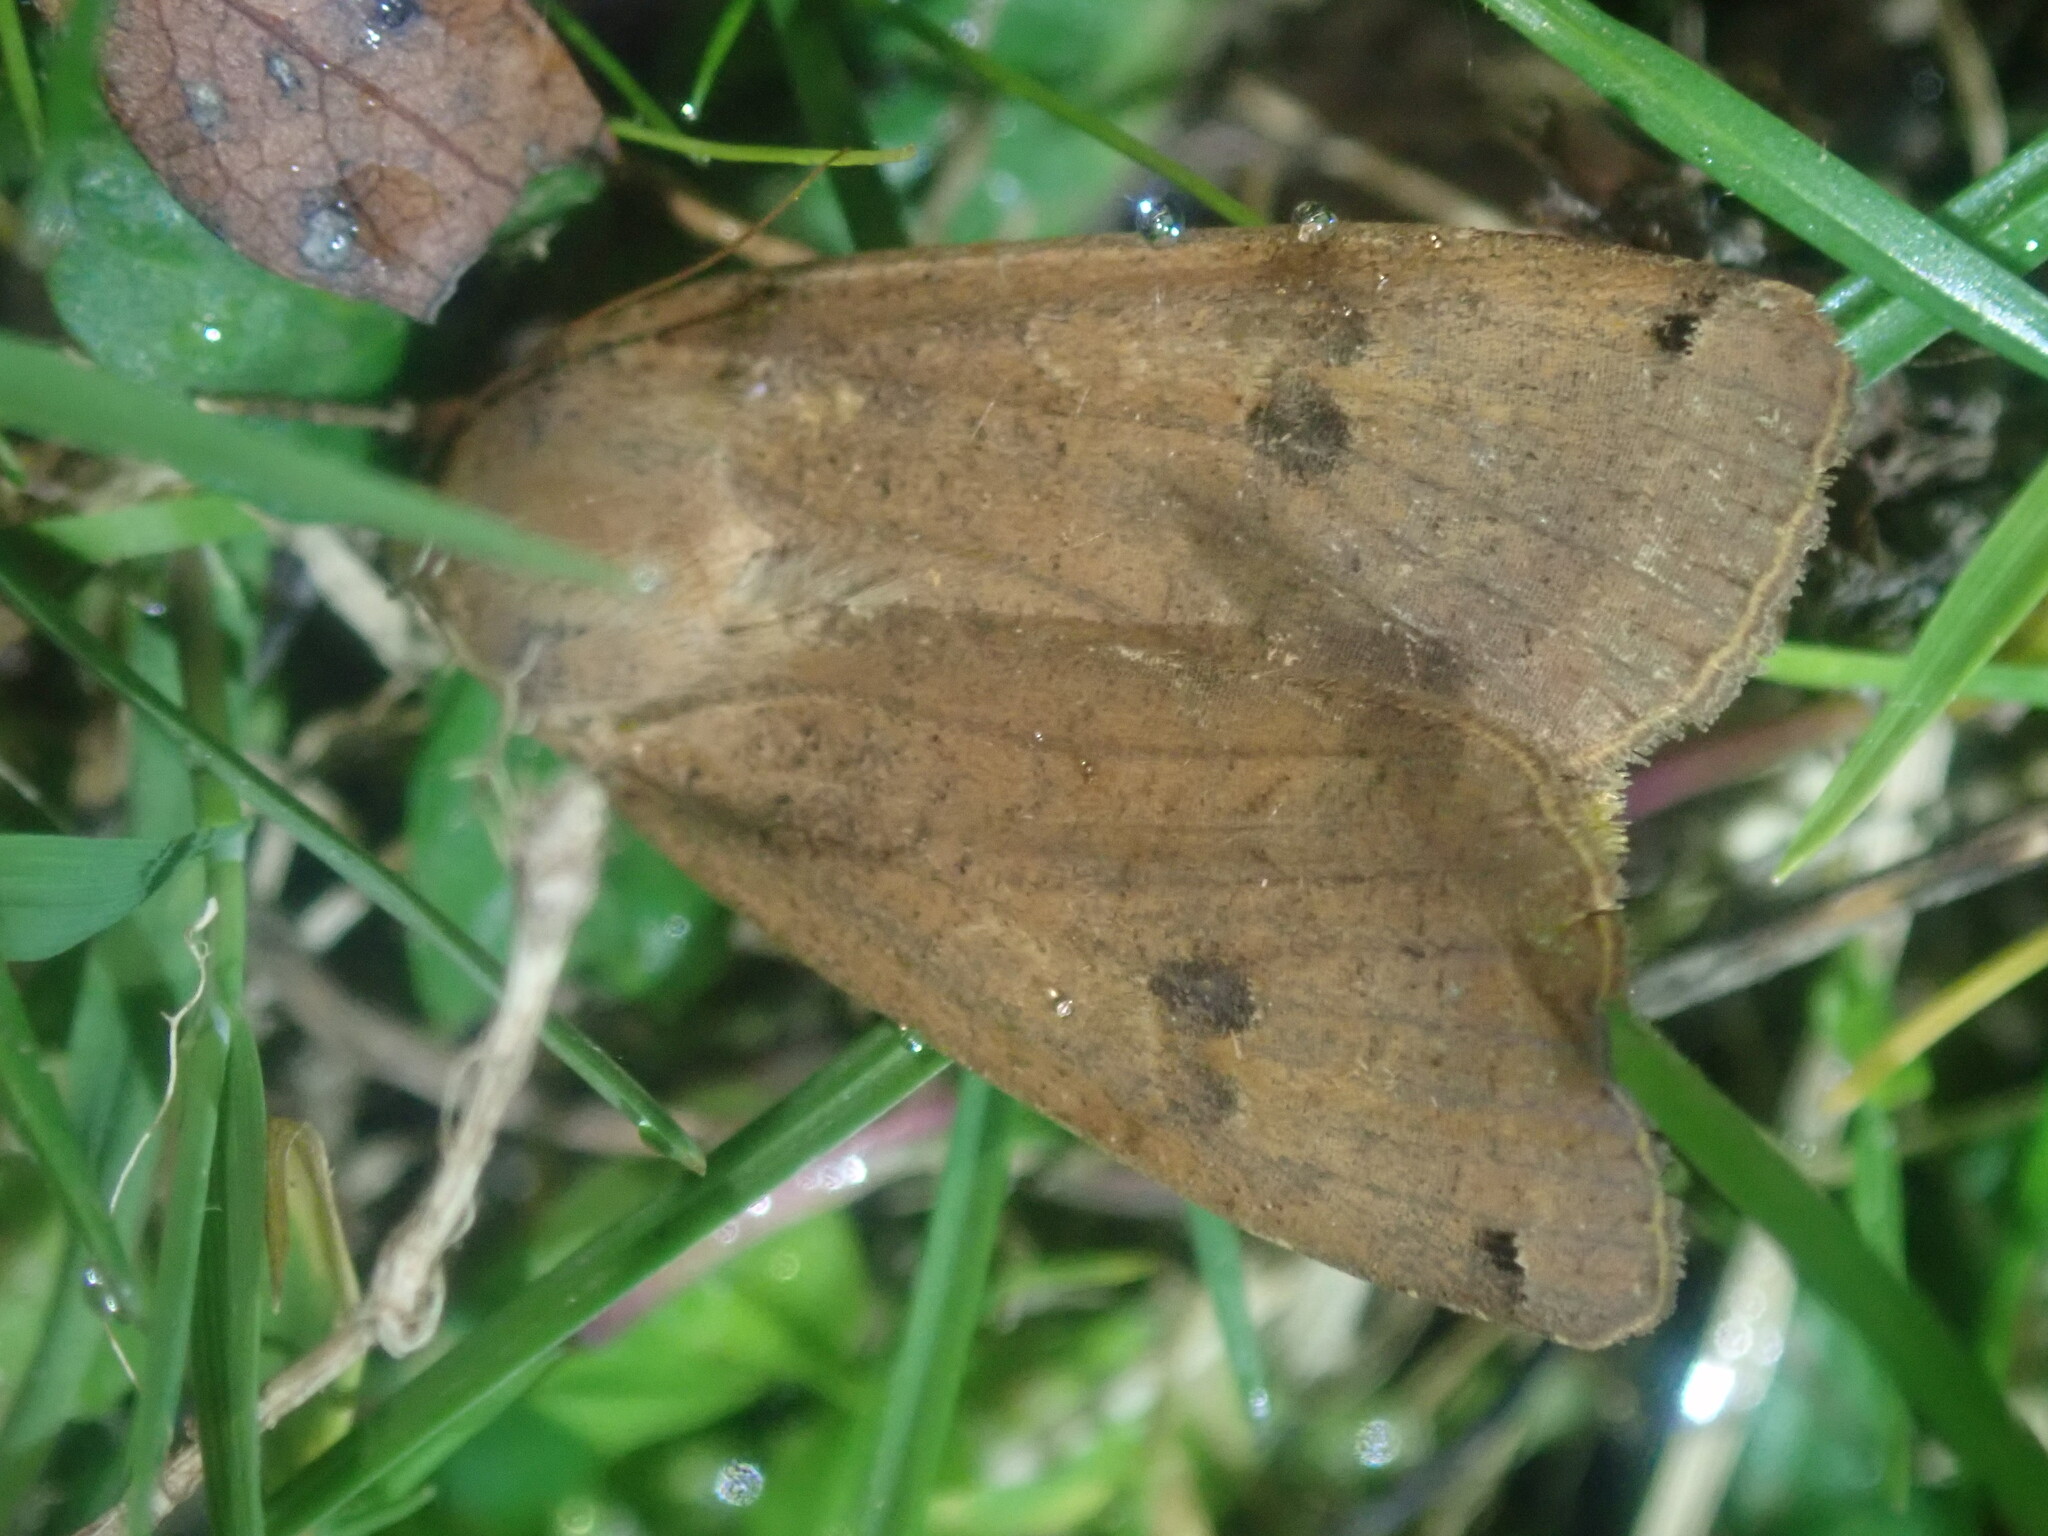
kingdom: Animalia
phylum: Arthropoda
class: Insecta
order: Lepidoptera
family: Noctuidae
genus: Noctua
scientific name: Noctua pronuba
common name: Large yellow underwing
